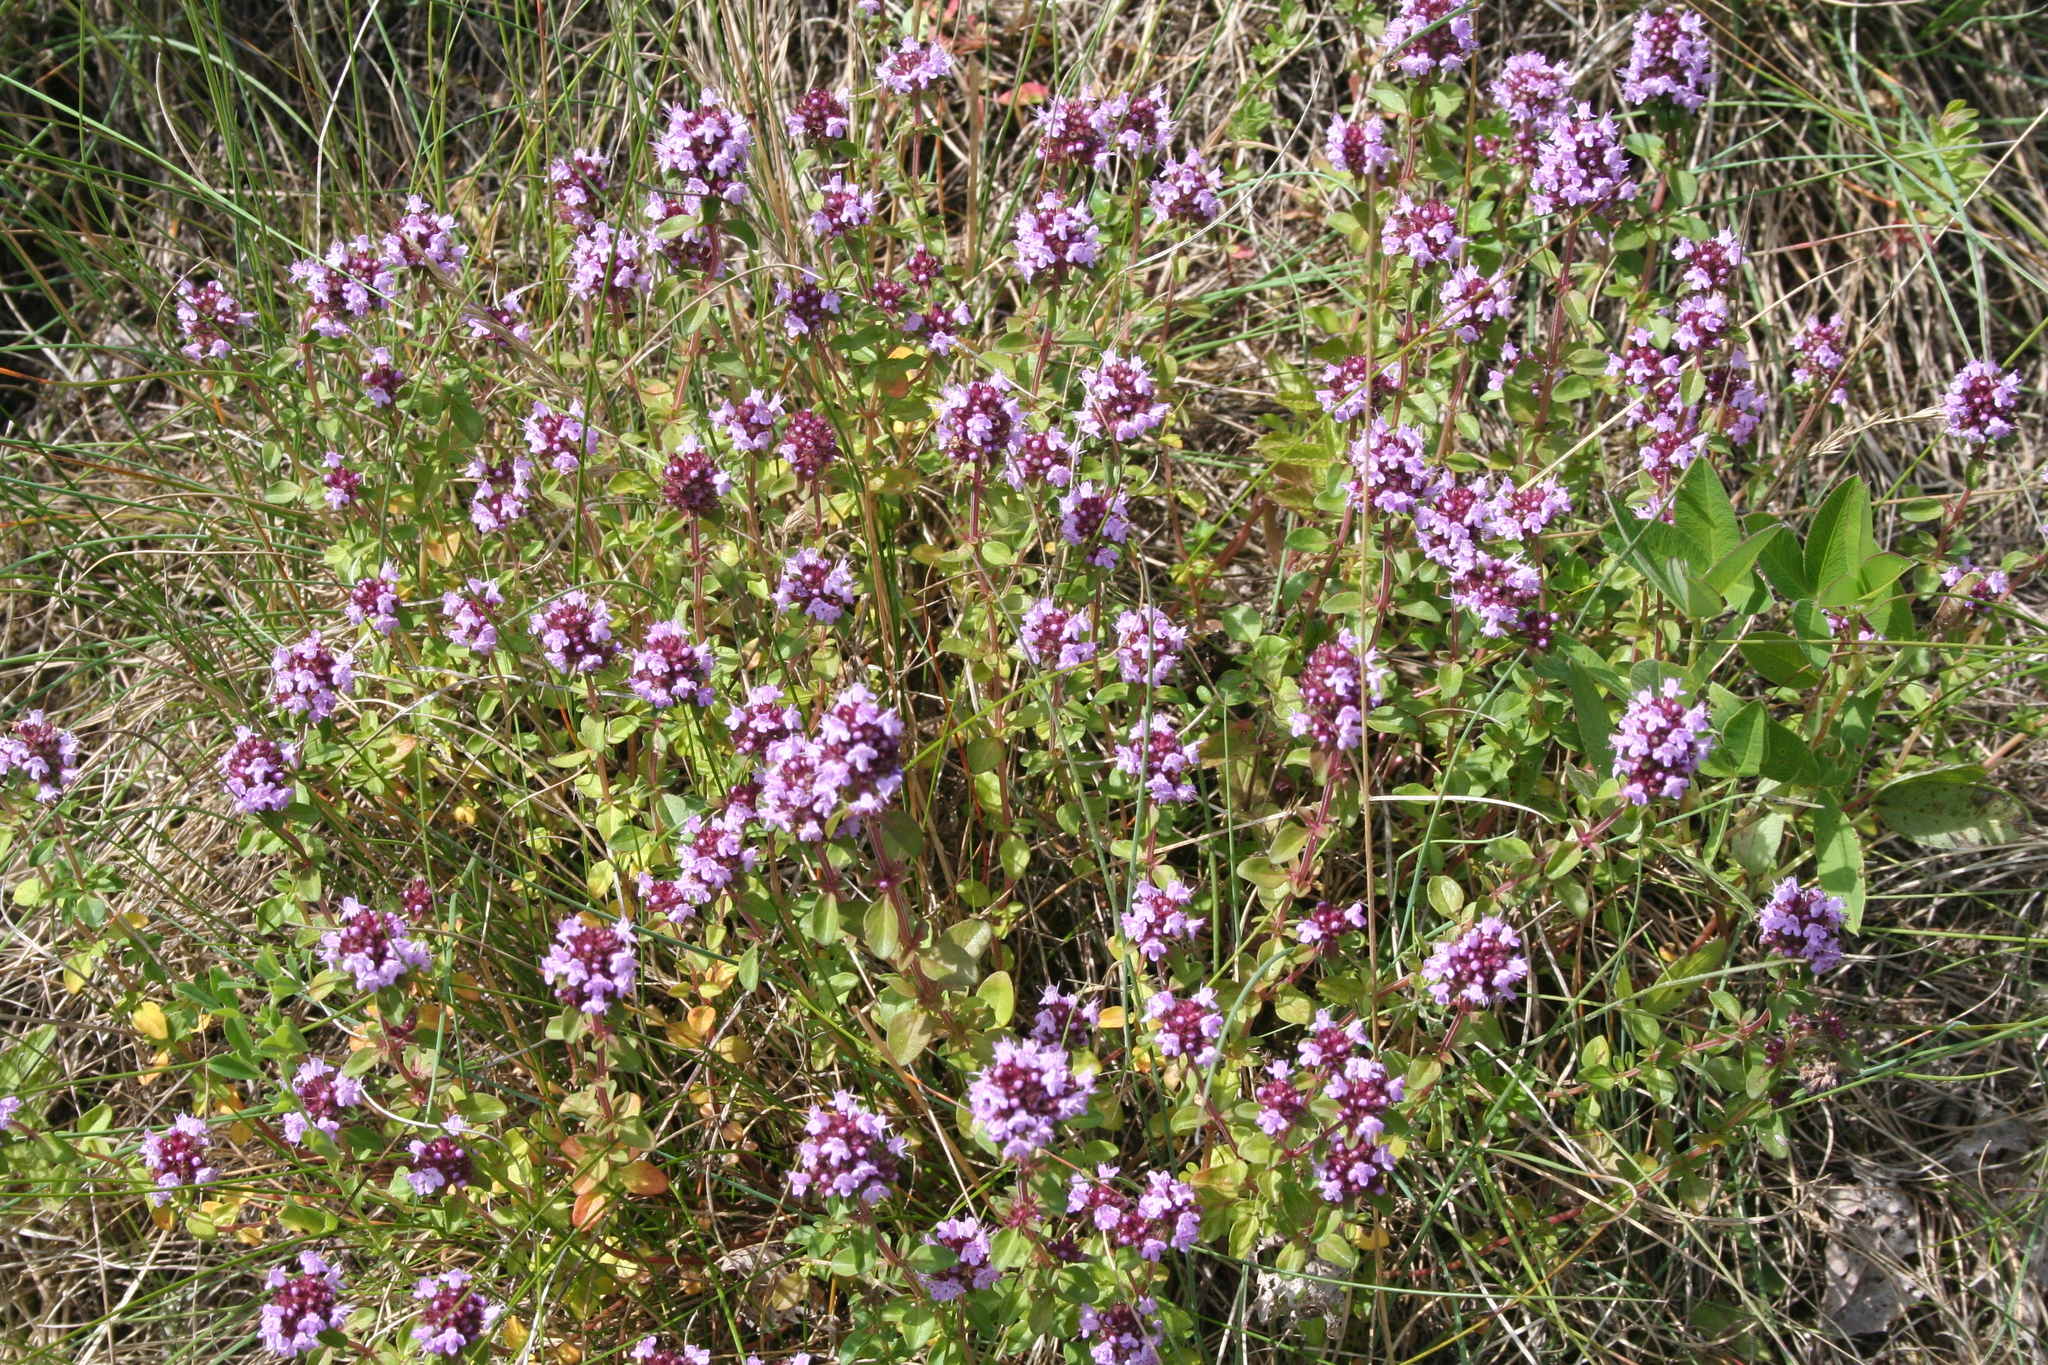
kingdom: Plantae
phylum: Tracheophyta
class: Magnoliopsida
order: Lamiales
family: Lamiaceae
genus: Thymus
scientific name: Thymus pulegioides
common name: Large thyme
